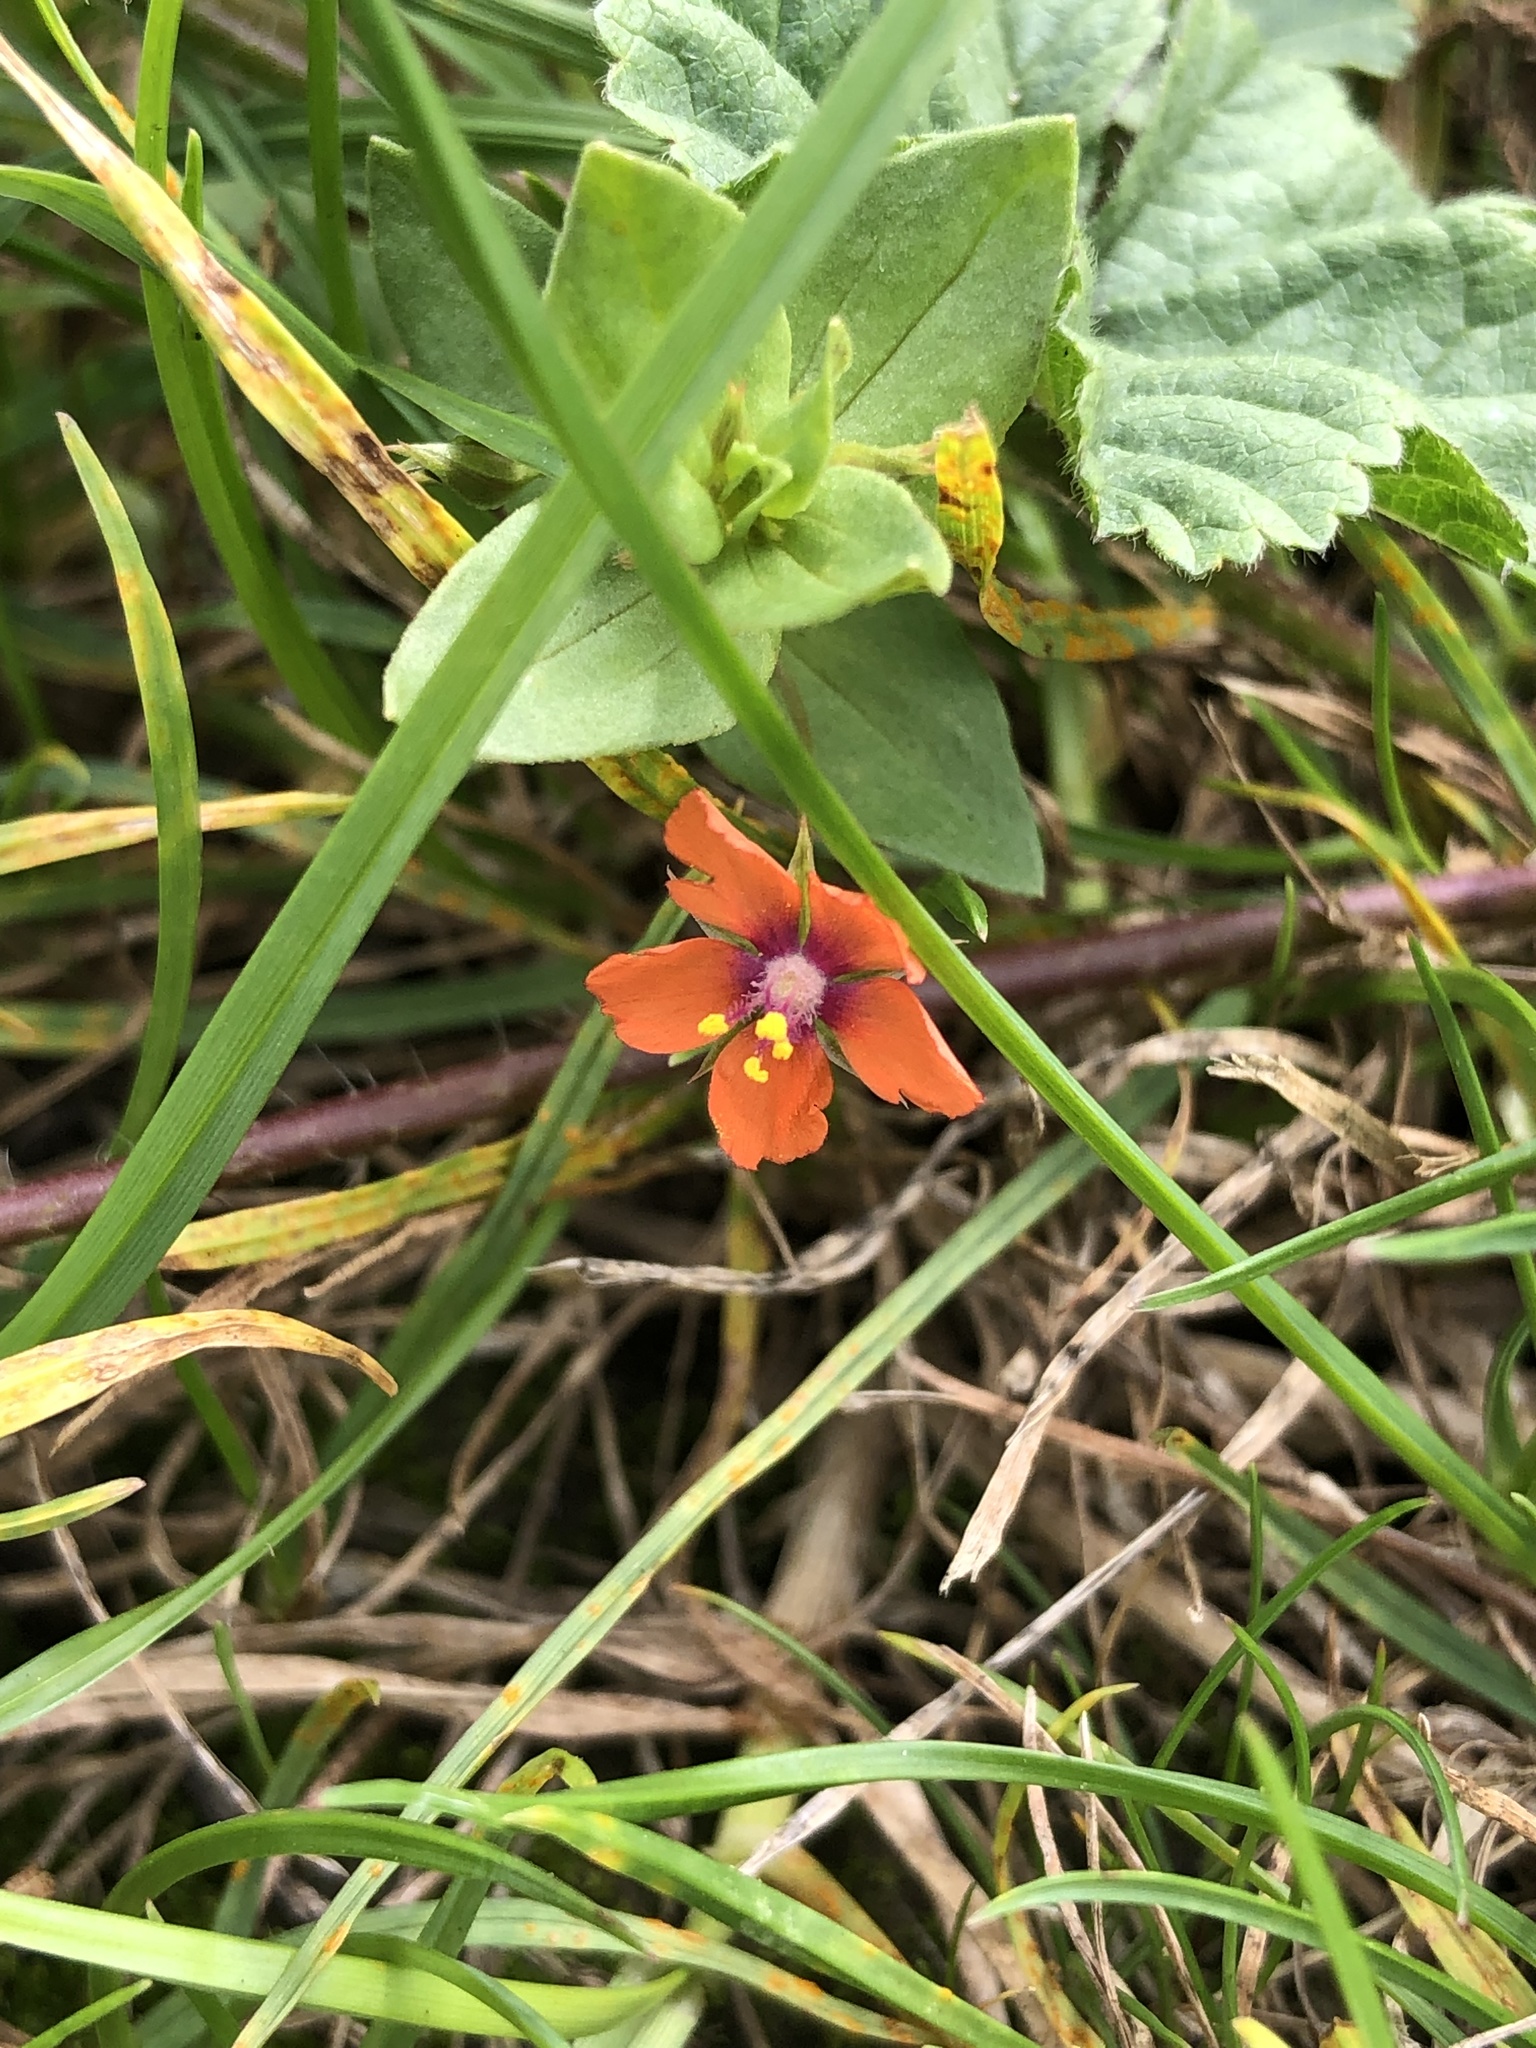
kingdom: Plantae
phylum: Tracheophyta
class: Magnoliopsida
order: Ericales
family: Primulaceae
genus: Lysimachia
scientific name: Lysimachia arvensis
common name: Scarlet pimpernel
